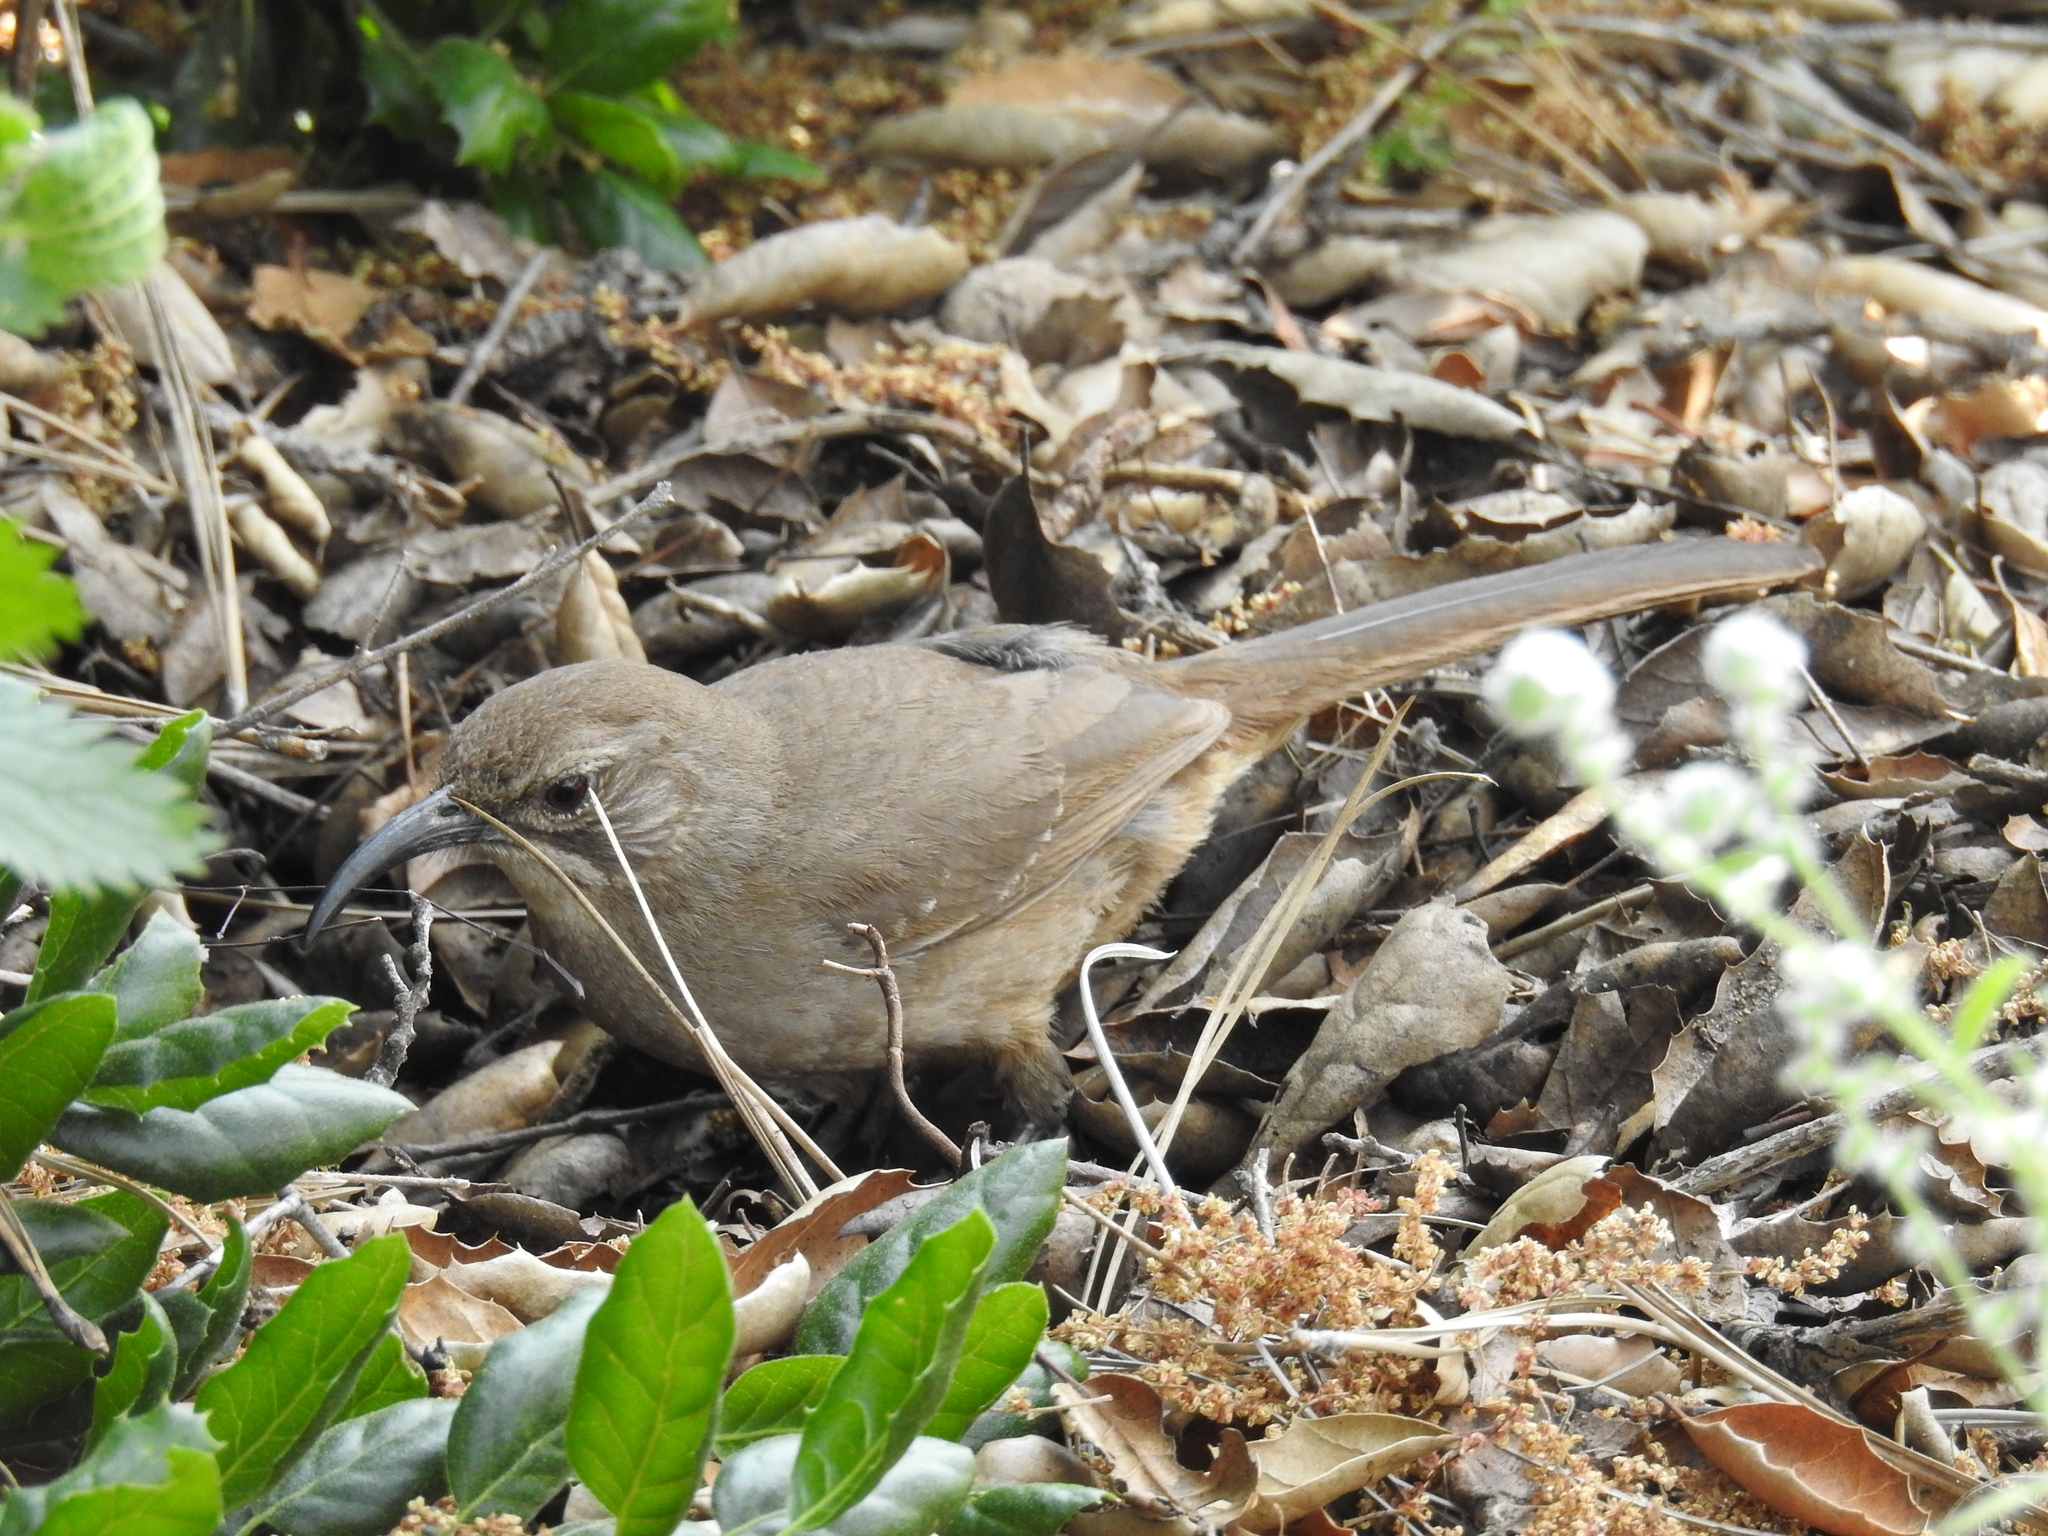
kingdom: Animalia
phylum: Chordata
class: Aves
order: Passeriformes
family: Mimidae
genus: Toxostoma
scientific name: Toxostoma redivivum
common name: California thrasher
